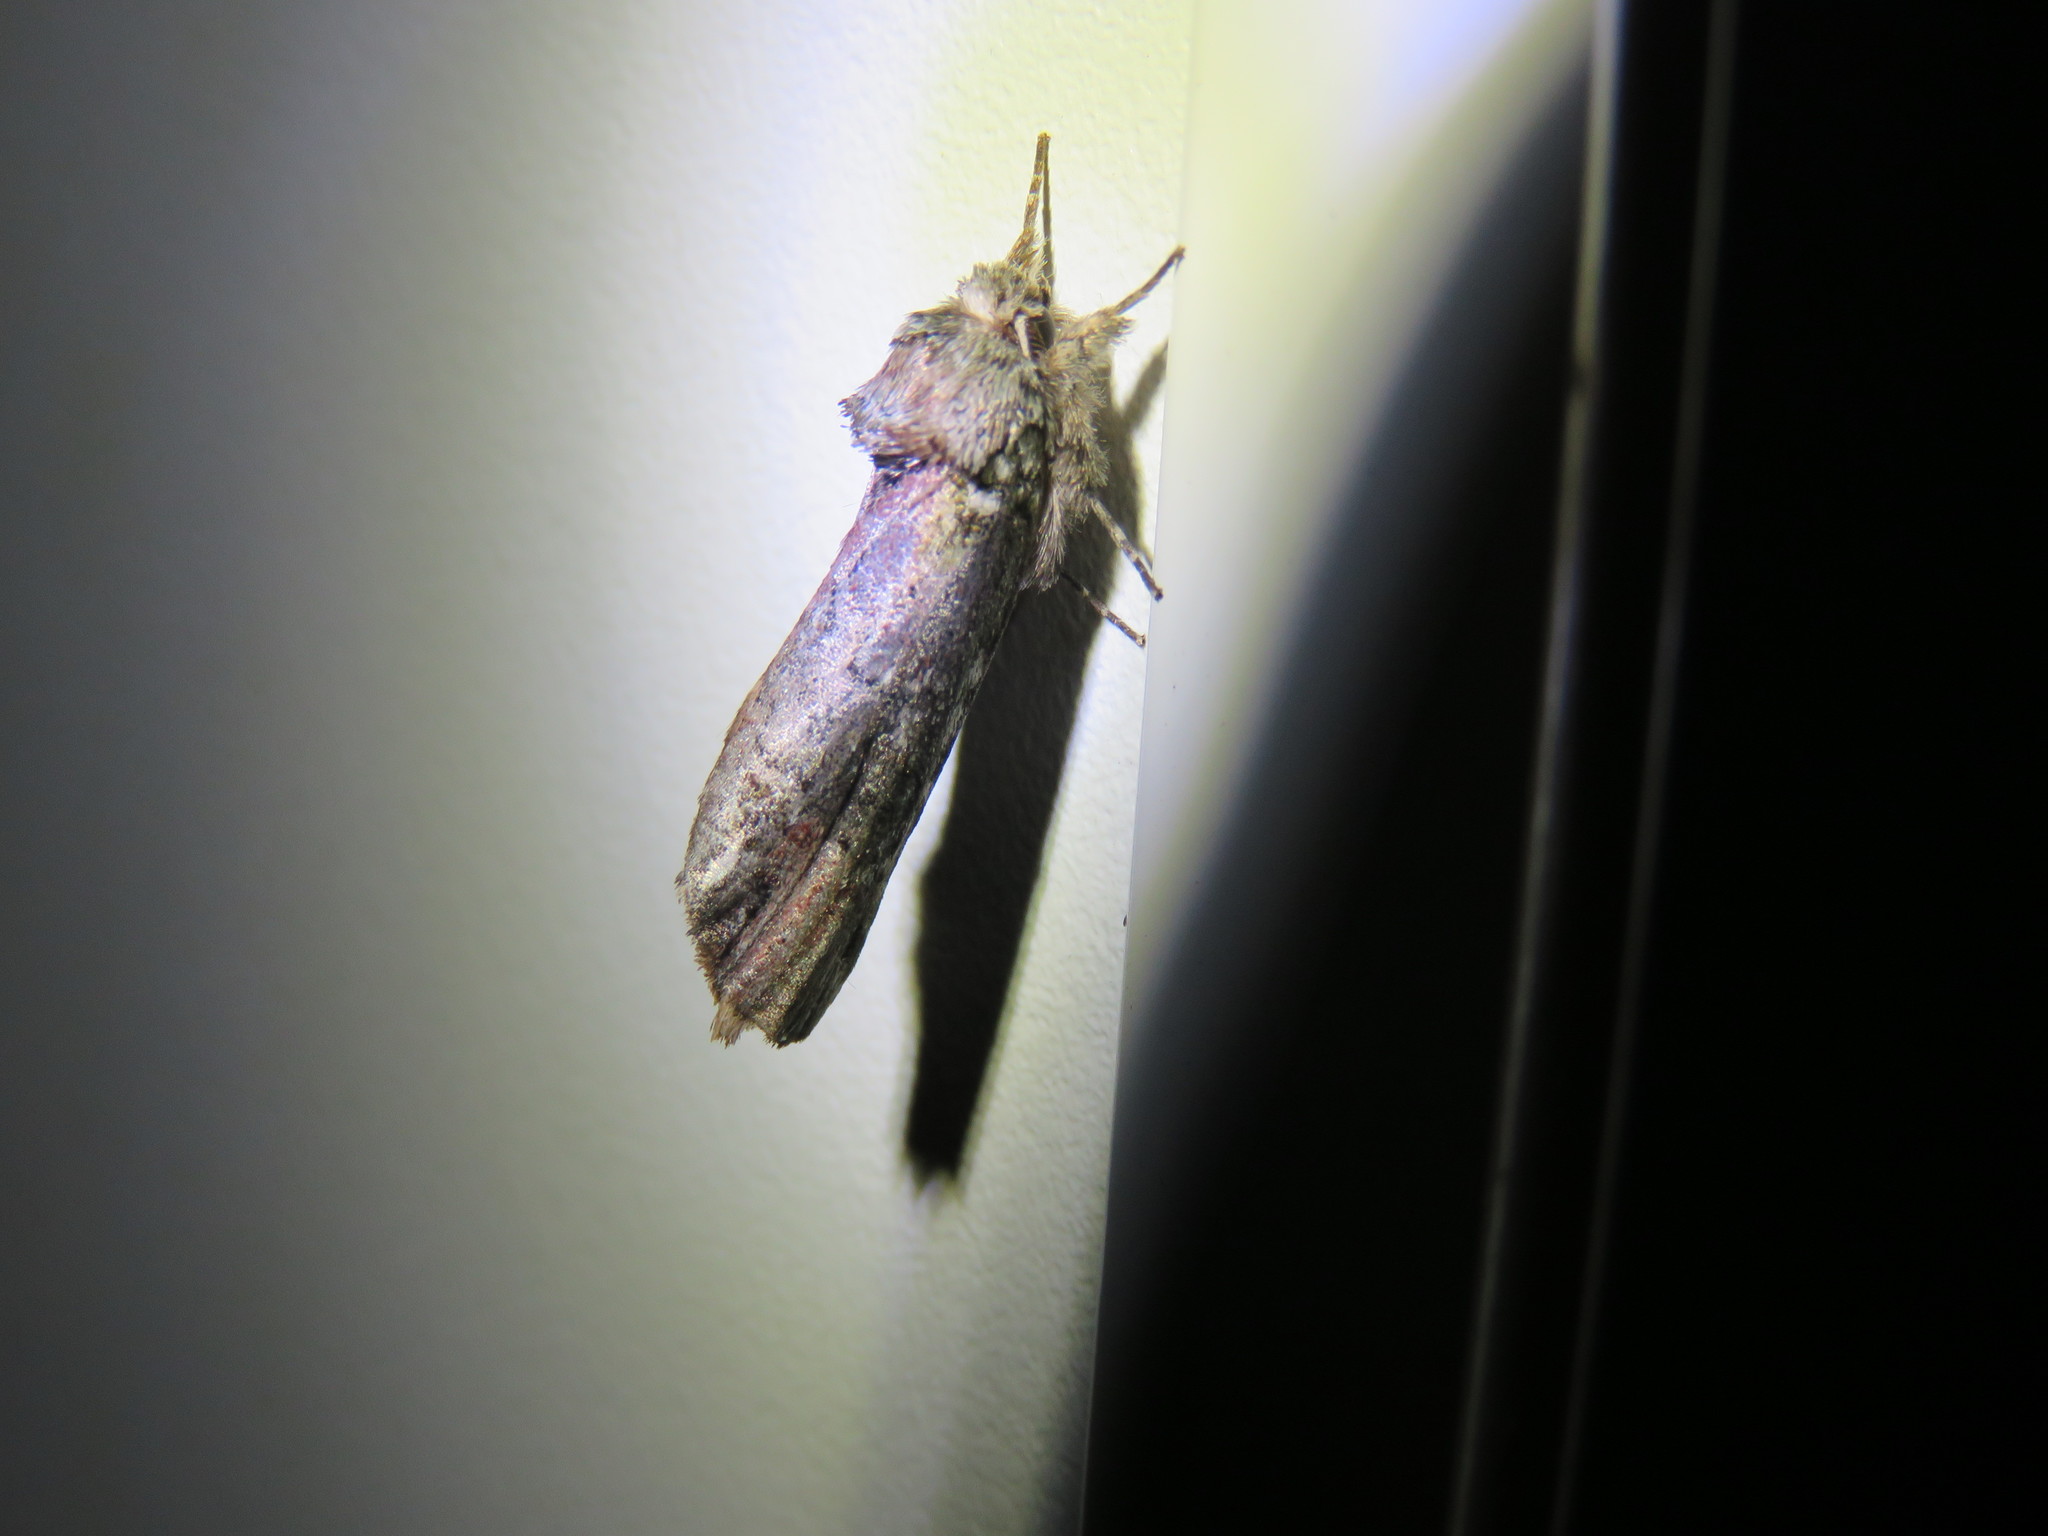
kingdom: Animalia
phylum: Arthropoda
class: Insecta
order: Lepidoptera
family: Notodontidae
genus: Schizura
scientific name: Schizura
